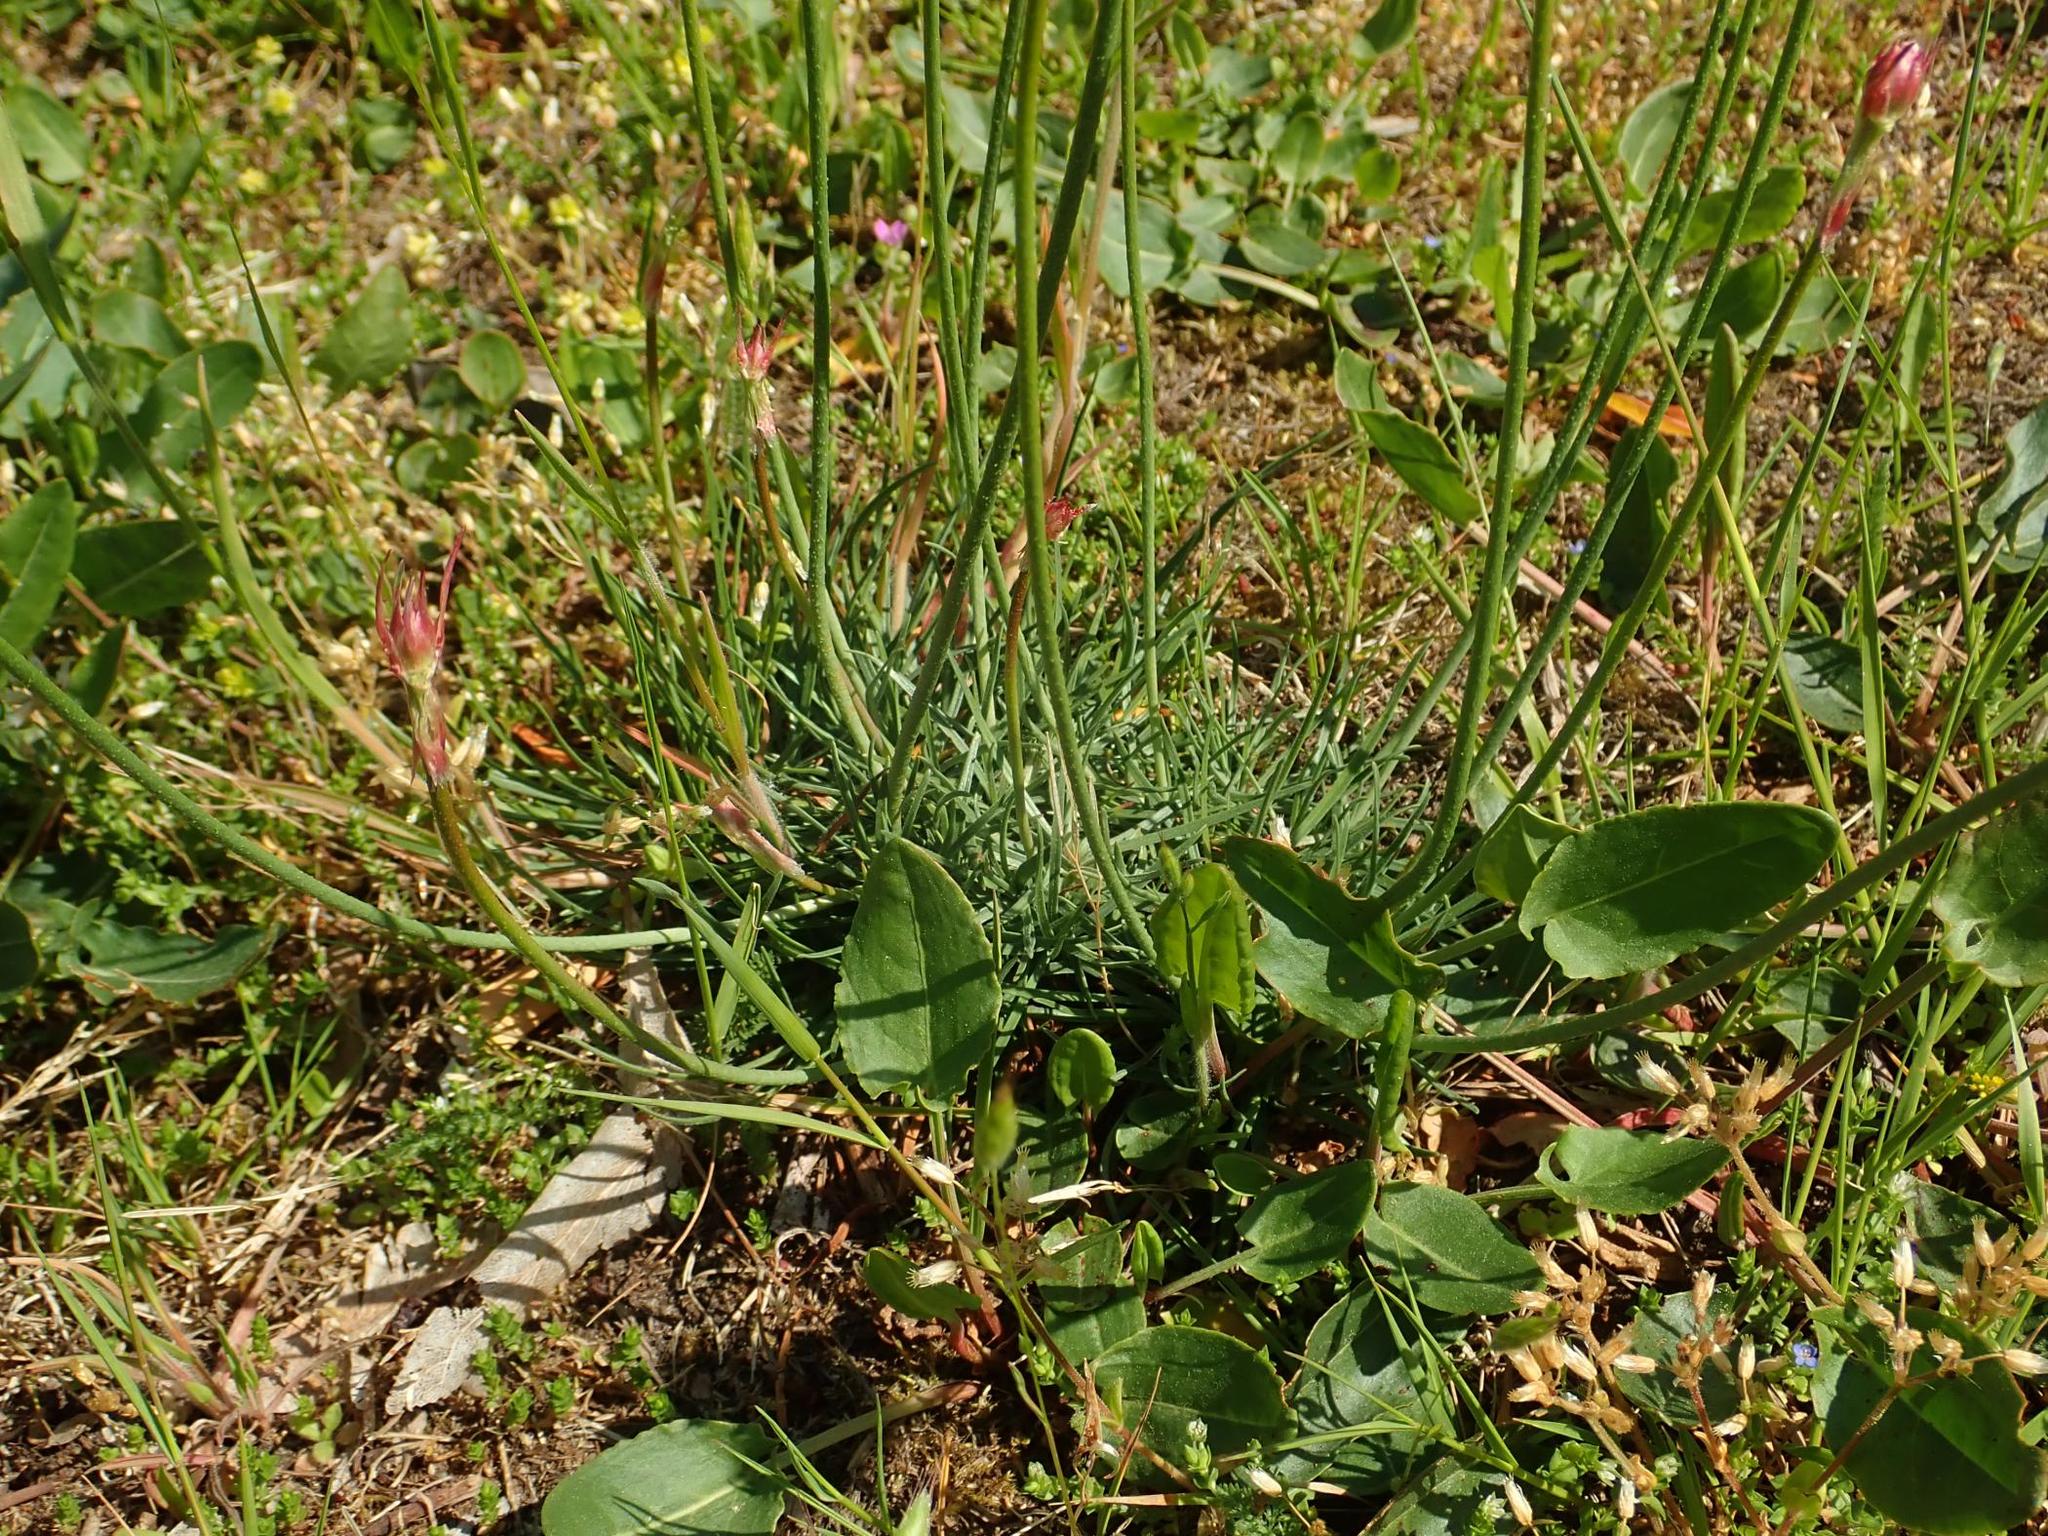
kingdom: Plantae
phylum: Tracheophyta
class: Magnoliopsida
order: Caryophyllales
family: Plumbaginaceae
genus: Armeria
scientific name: Armeria maritima
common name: Thrift
